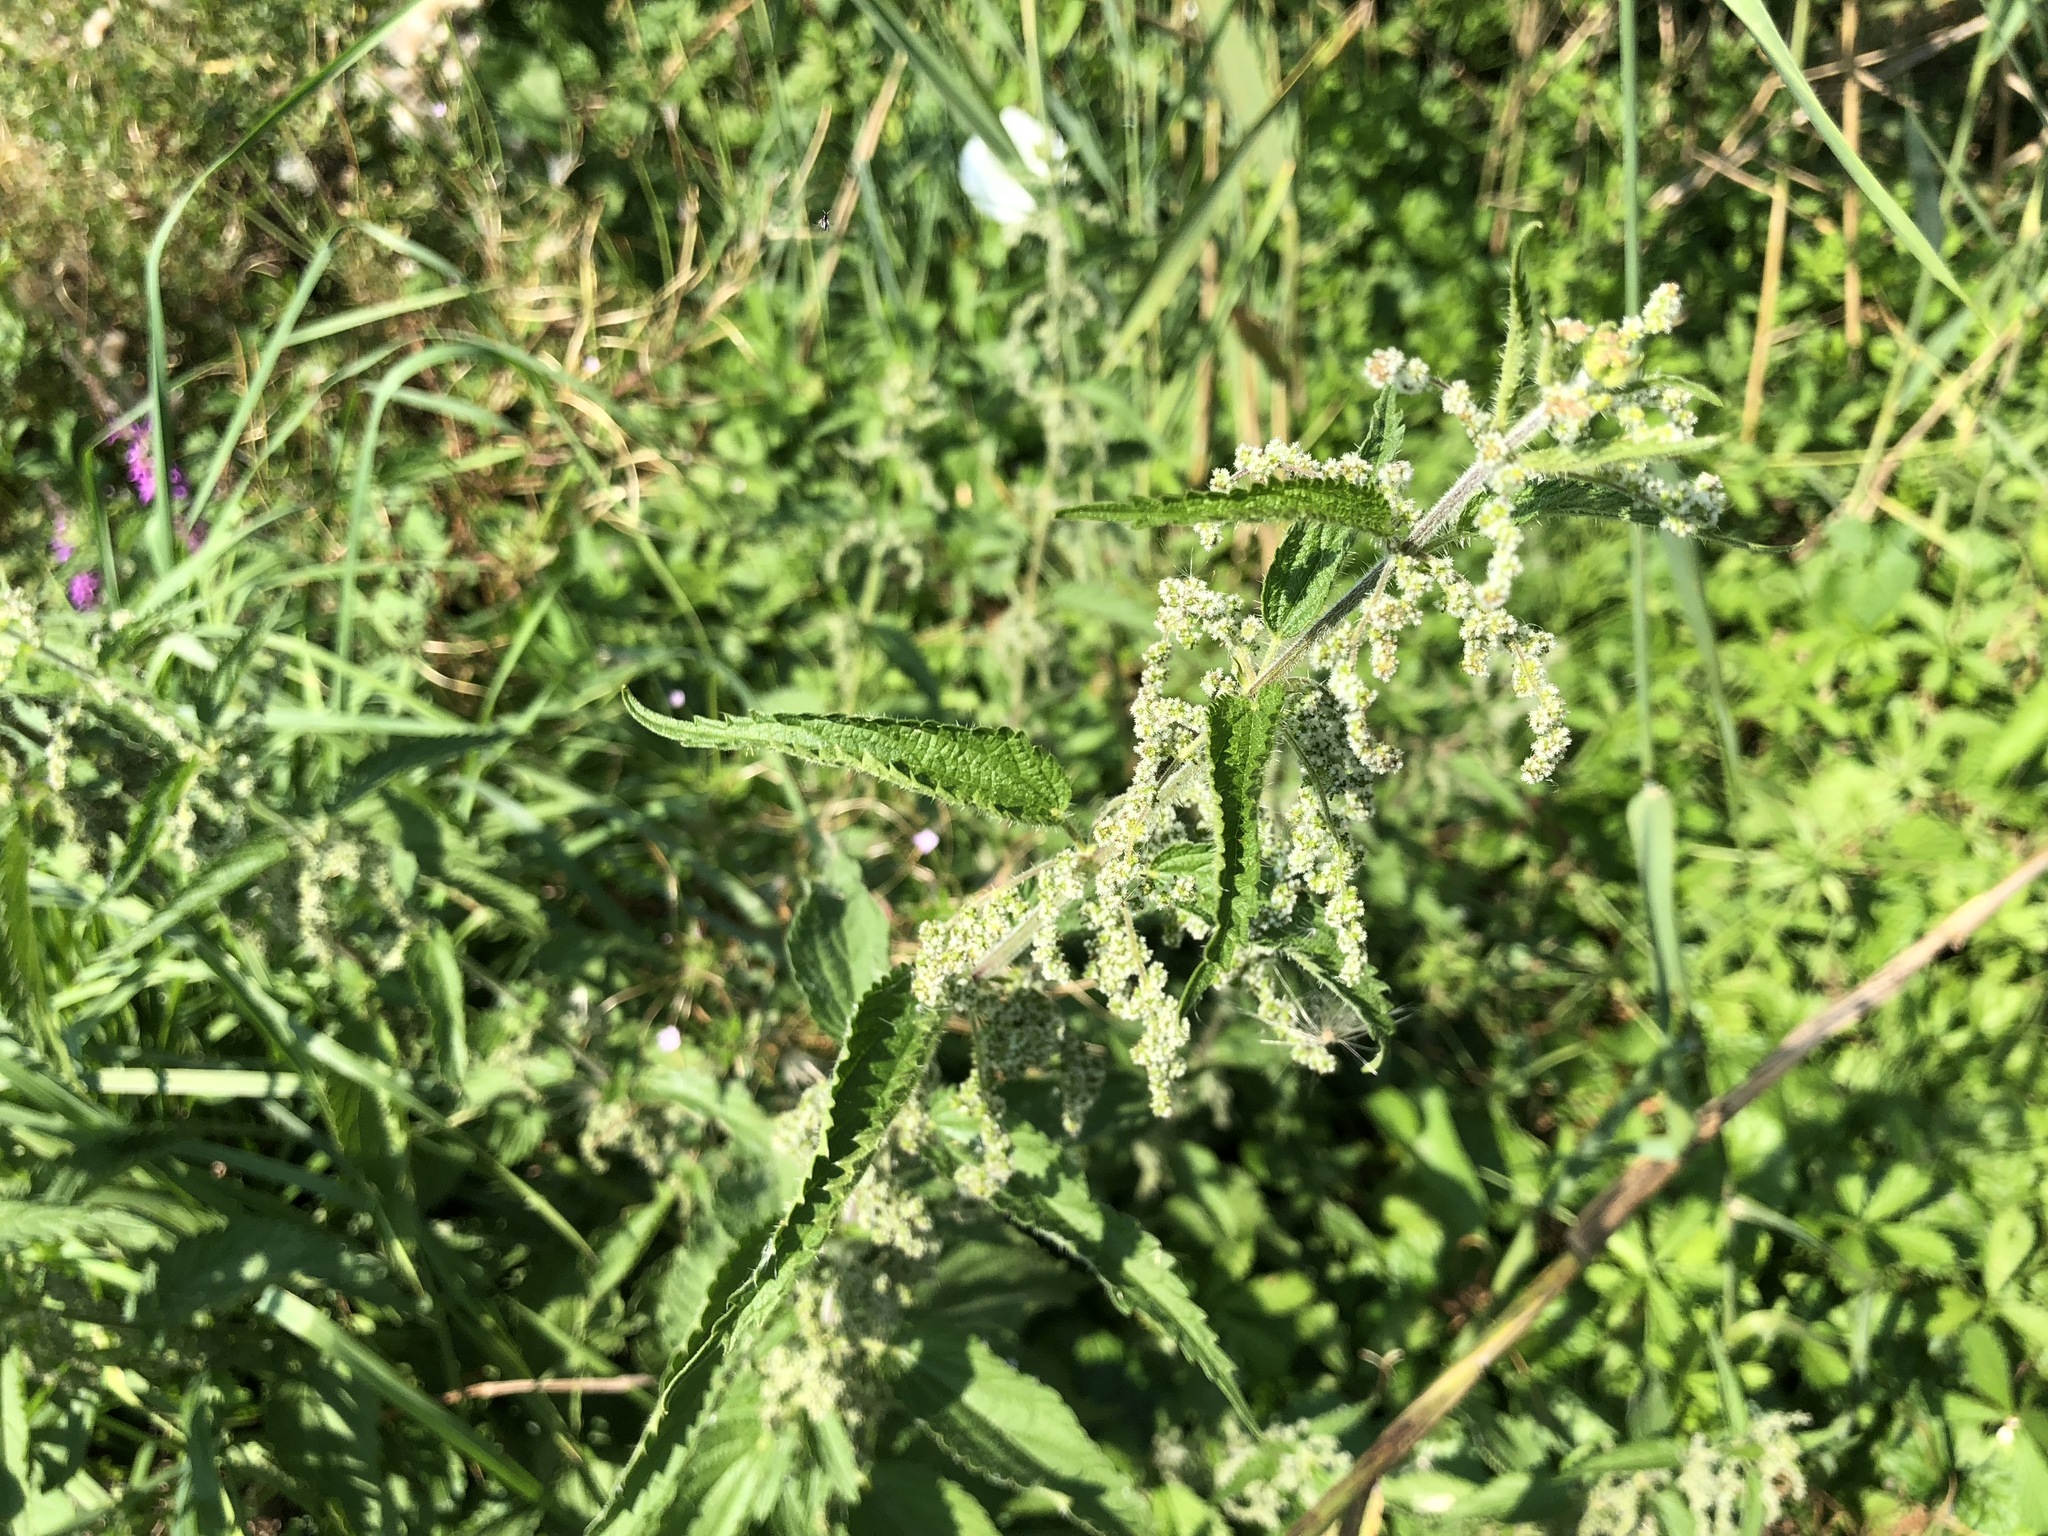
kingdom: Plantae
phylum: Tracheophyta
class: Magnoliopsida
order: Rosales
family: Urticaceae
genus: Urtica
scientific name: Urtica dioica
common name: Common nettle
